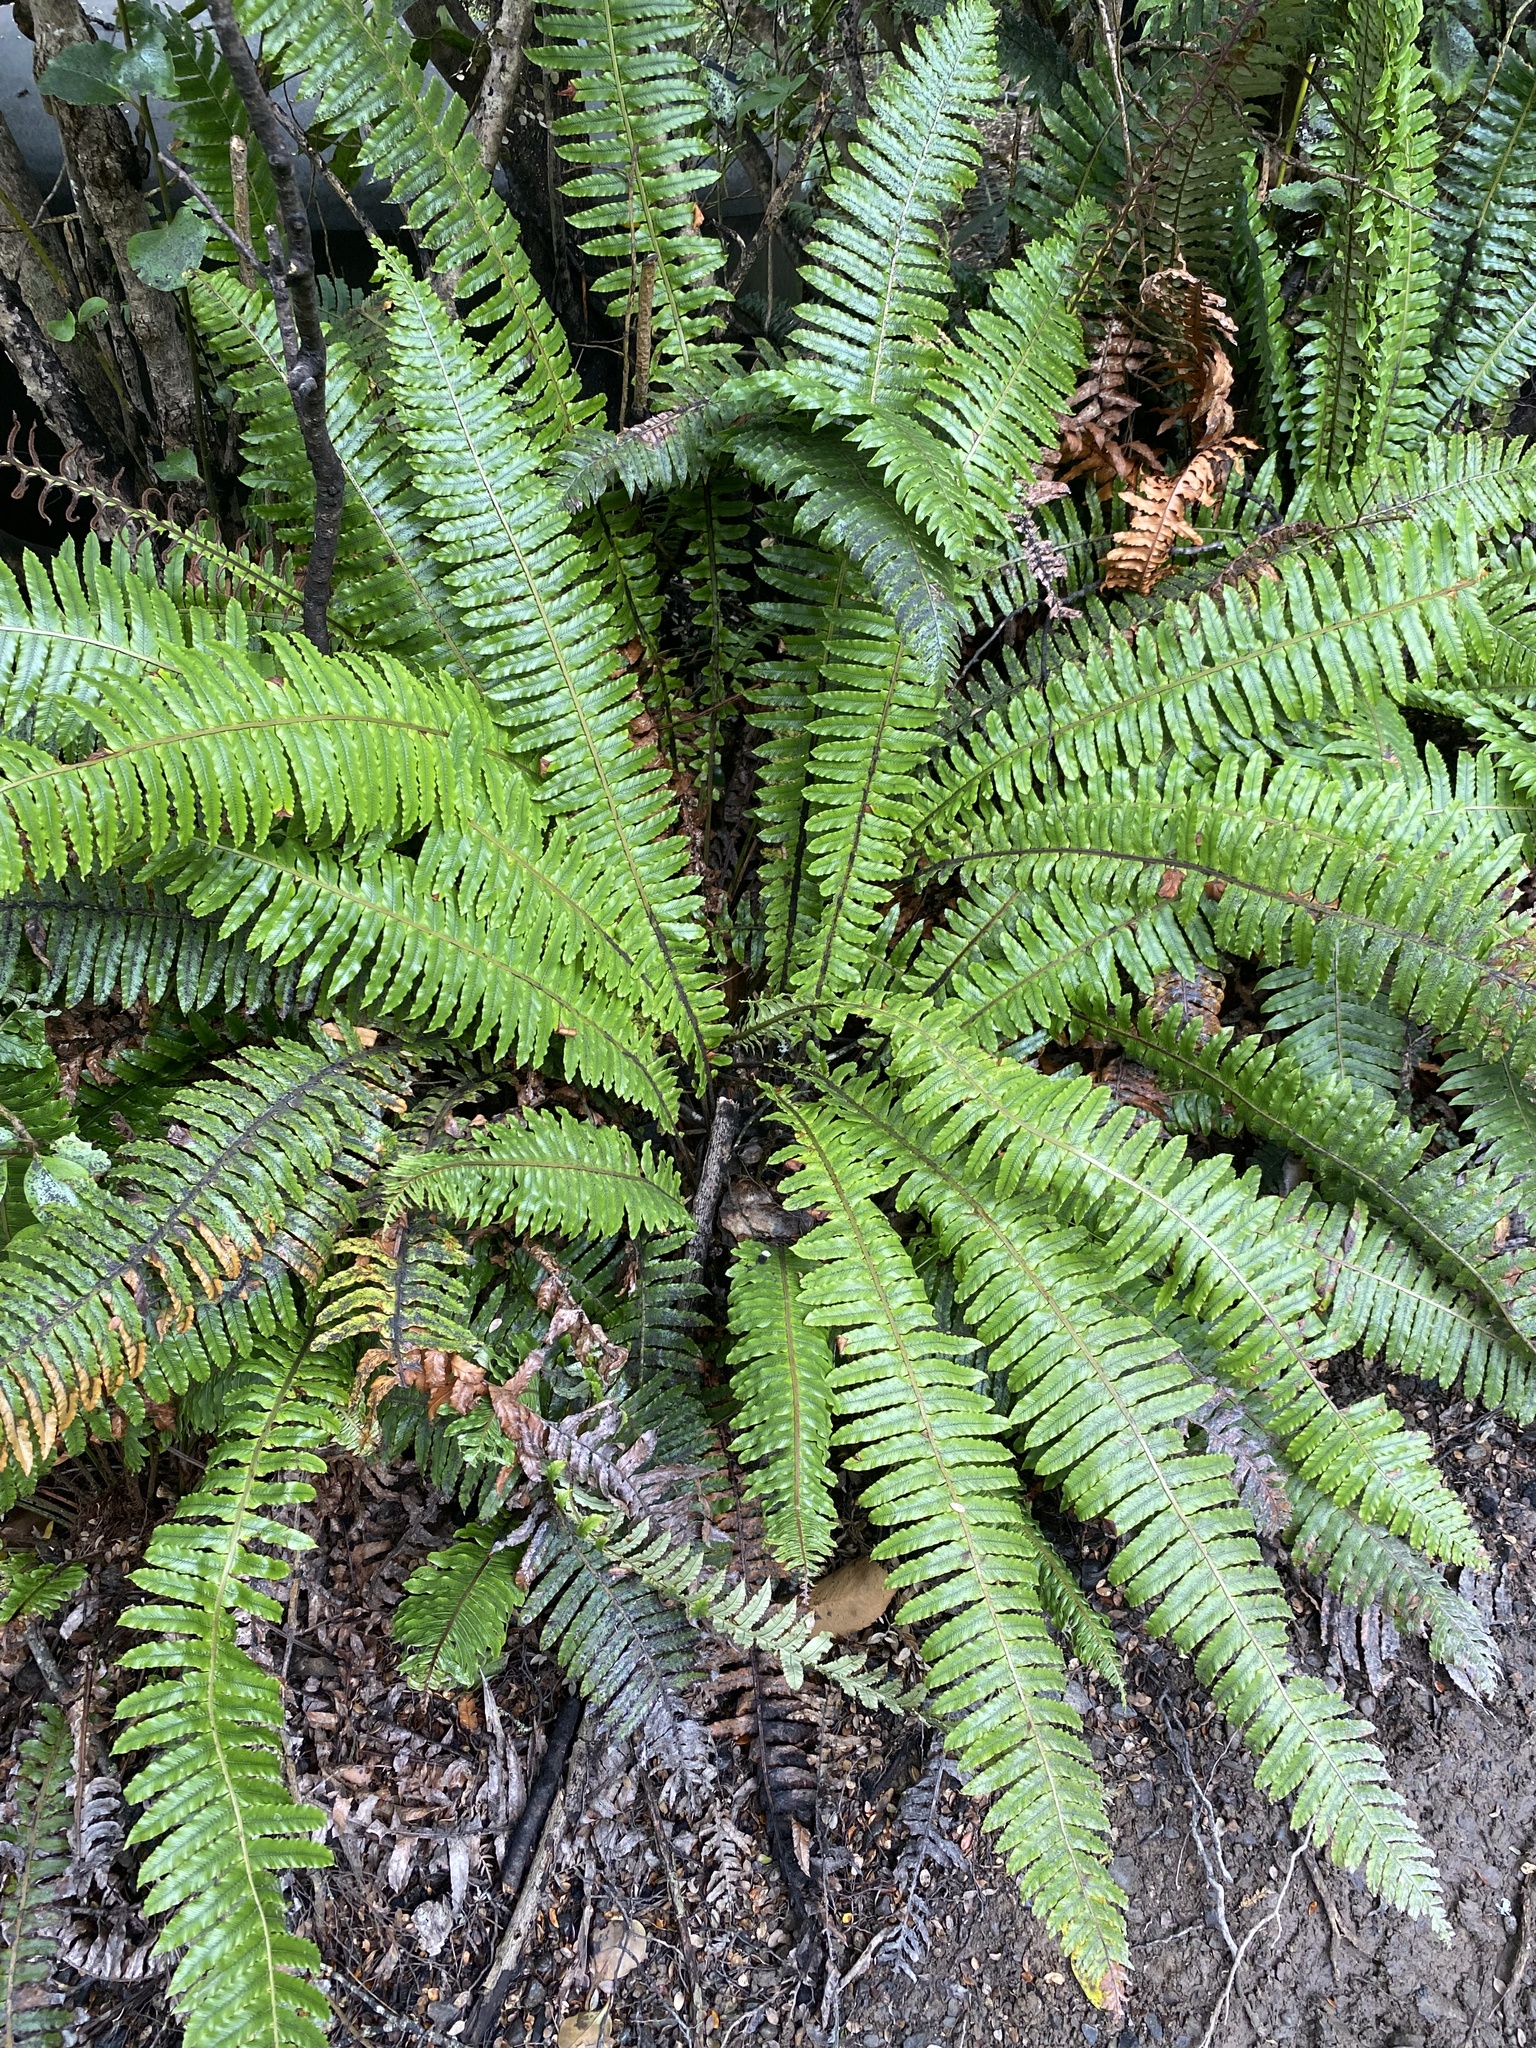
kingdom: Plantae
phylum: Tracheophyta
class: Polypodiopsida
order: Polypodiales
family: Blechnaceae
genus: Lomaria
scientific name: Lomaria discolor
